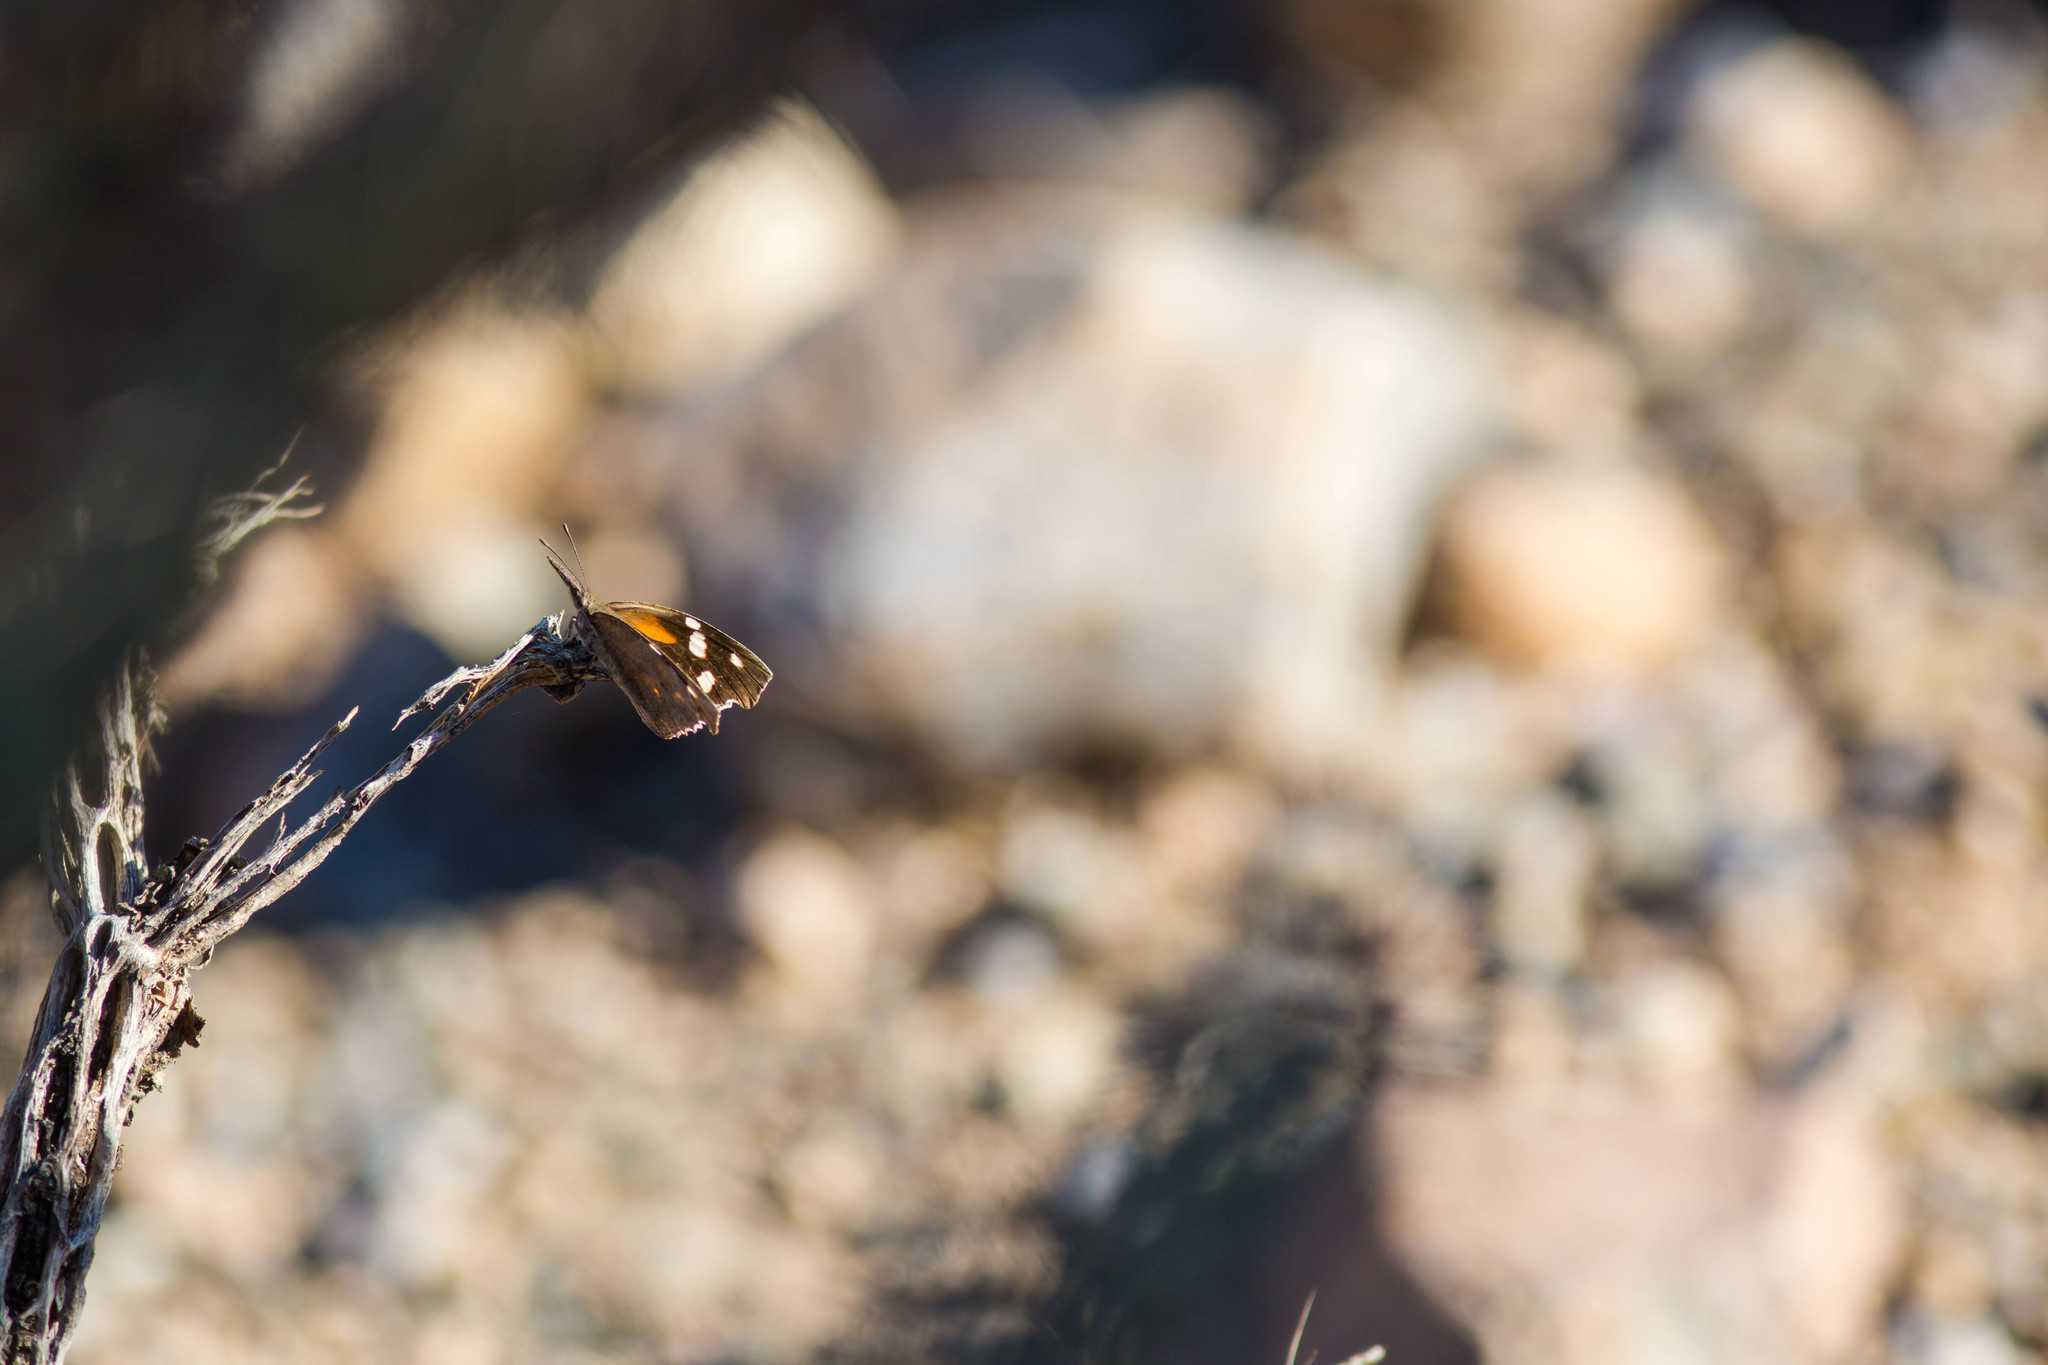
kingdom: Animalia
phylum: Arthropoda
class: Insecta
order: Lepidoptera
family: Nymphalidae
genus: Libytheana
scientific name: Libytheana carinenta
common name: American snout
